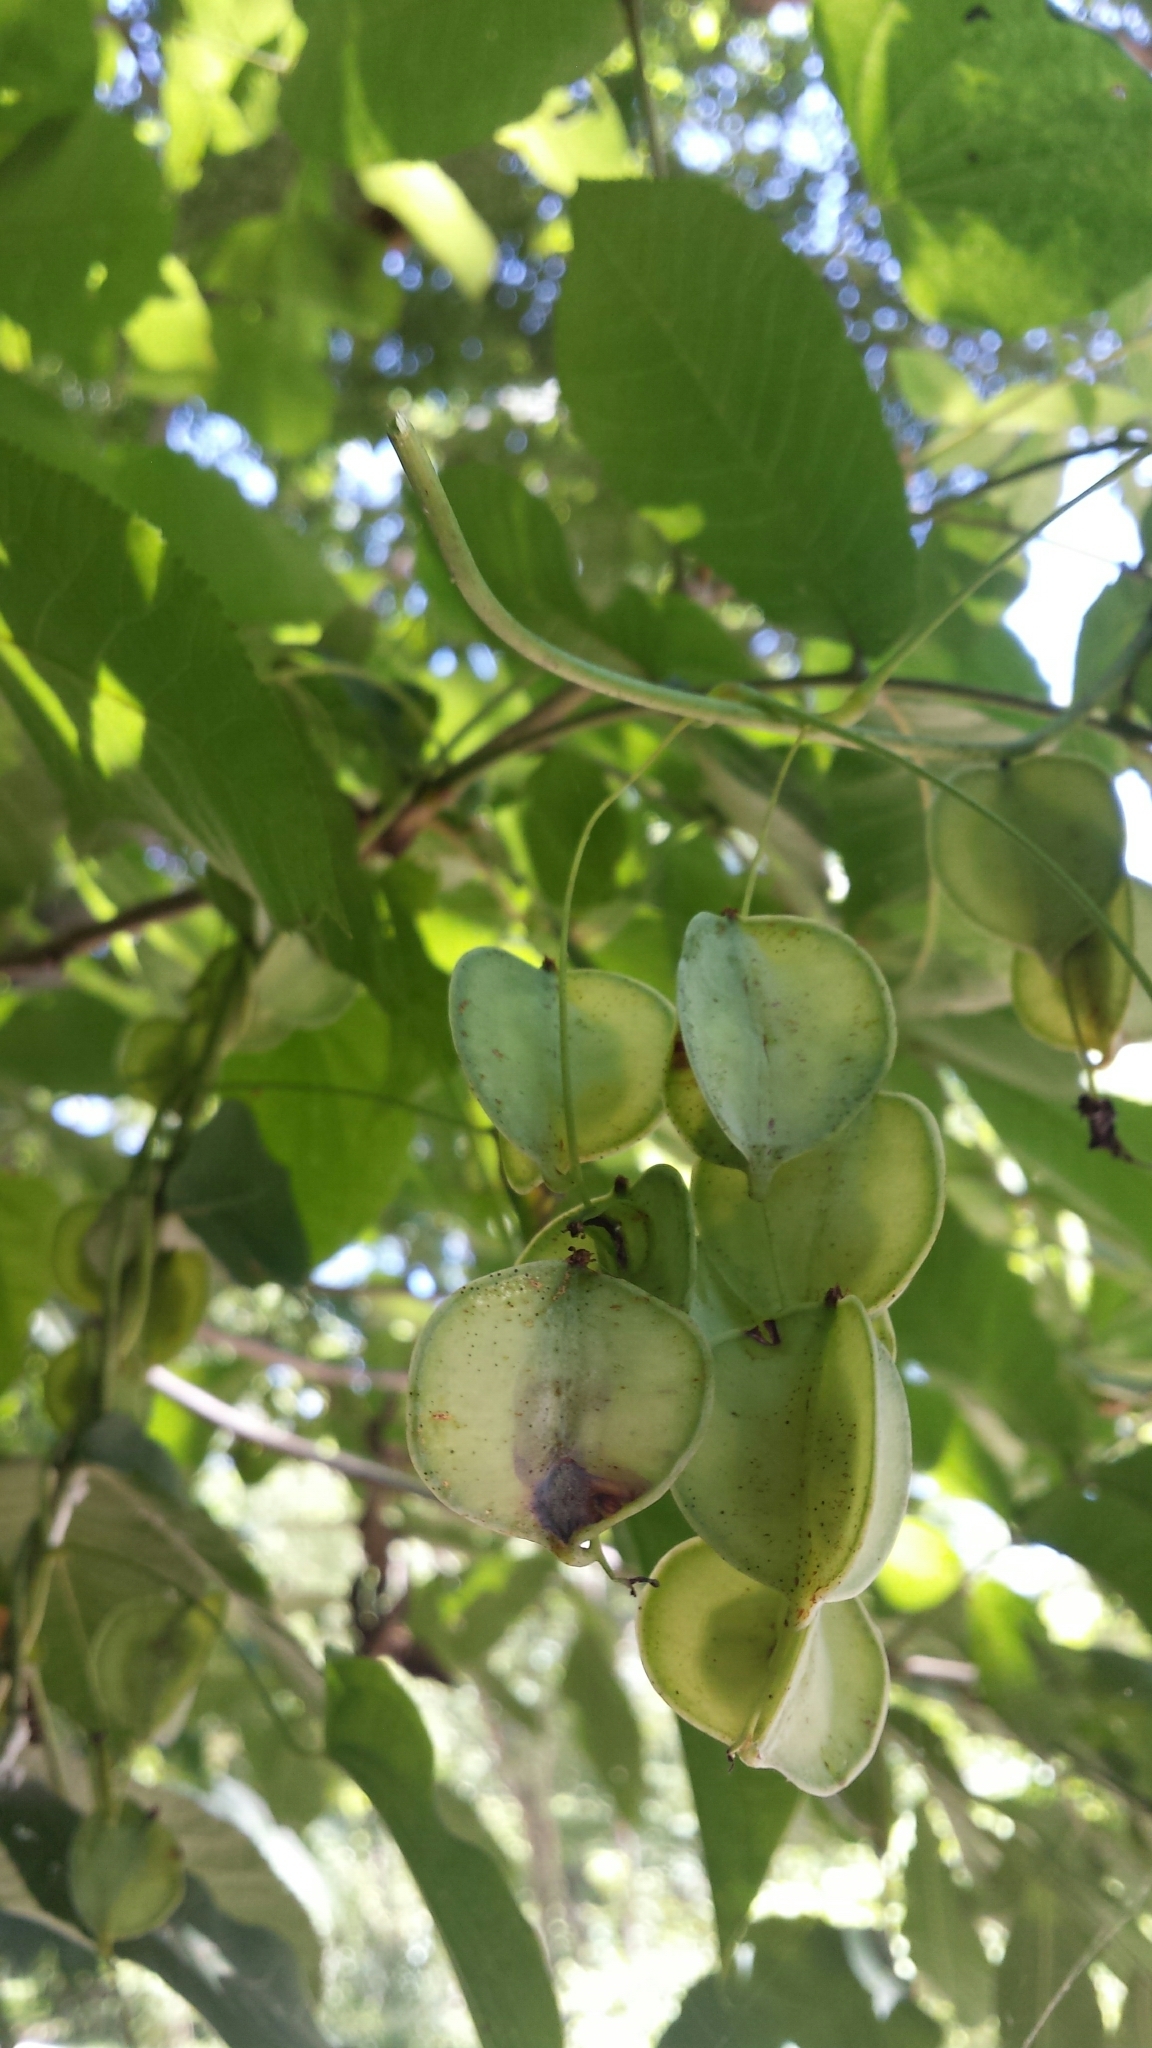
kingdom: Plantae
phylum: Tracheophyta
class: Liliopsida
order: Dioscoreales
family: Dioscoreaceae
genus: Dioscorea
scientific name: Dioscorea villosa
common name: Wild yam
